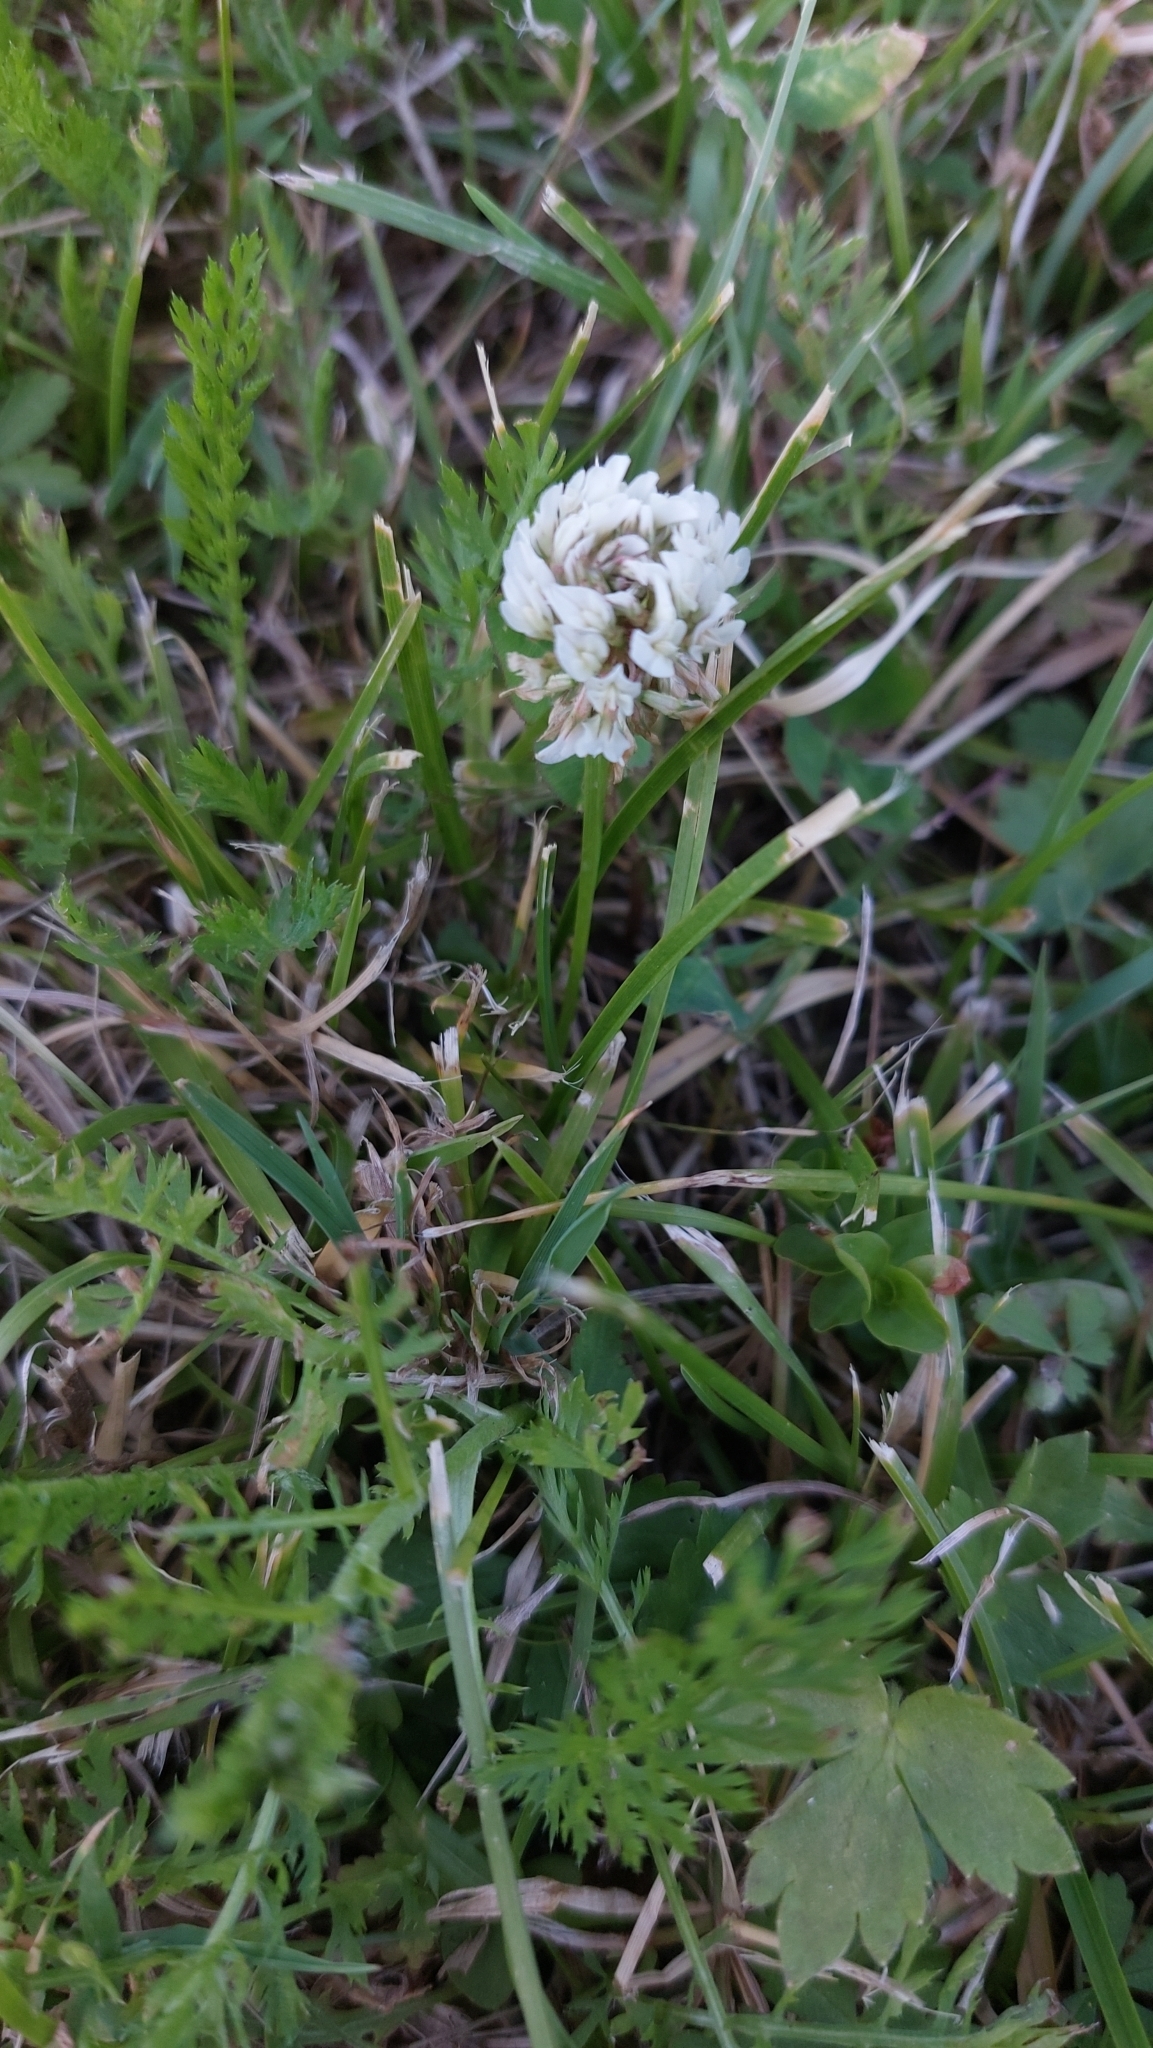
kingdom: Plantae
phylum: Tracheophyta
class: Magnoliopsida
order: Fabales
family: Fabaceae
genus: Trifolium
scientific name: Trifolium repens
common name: White clover
